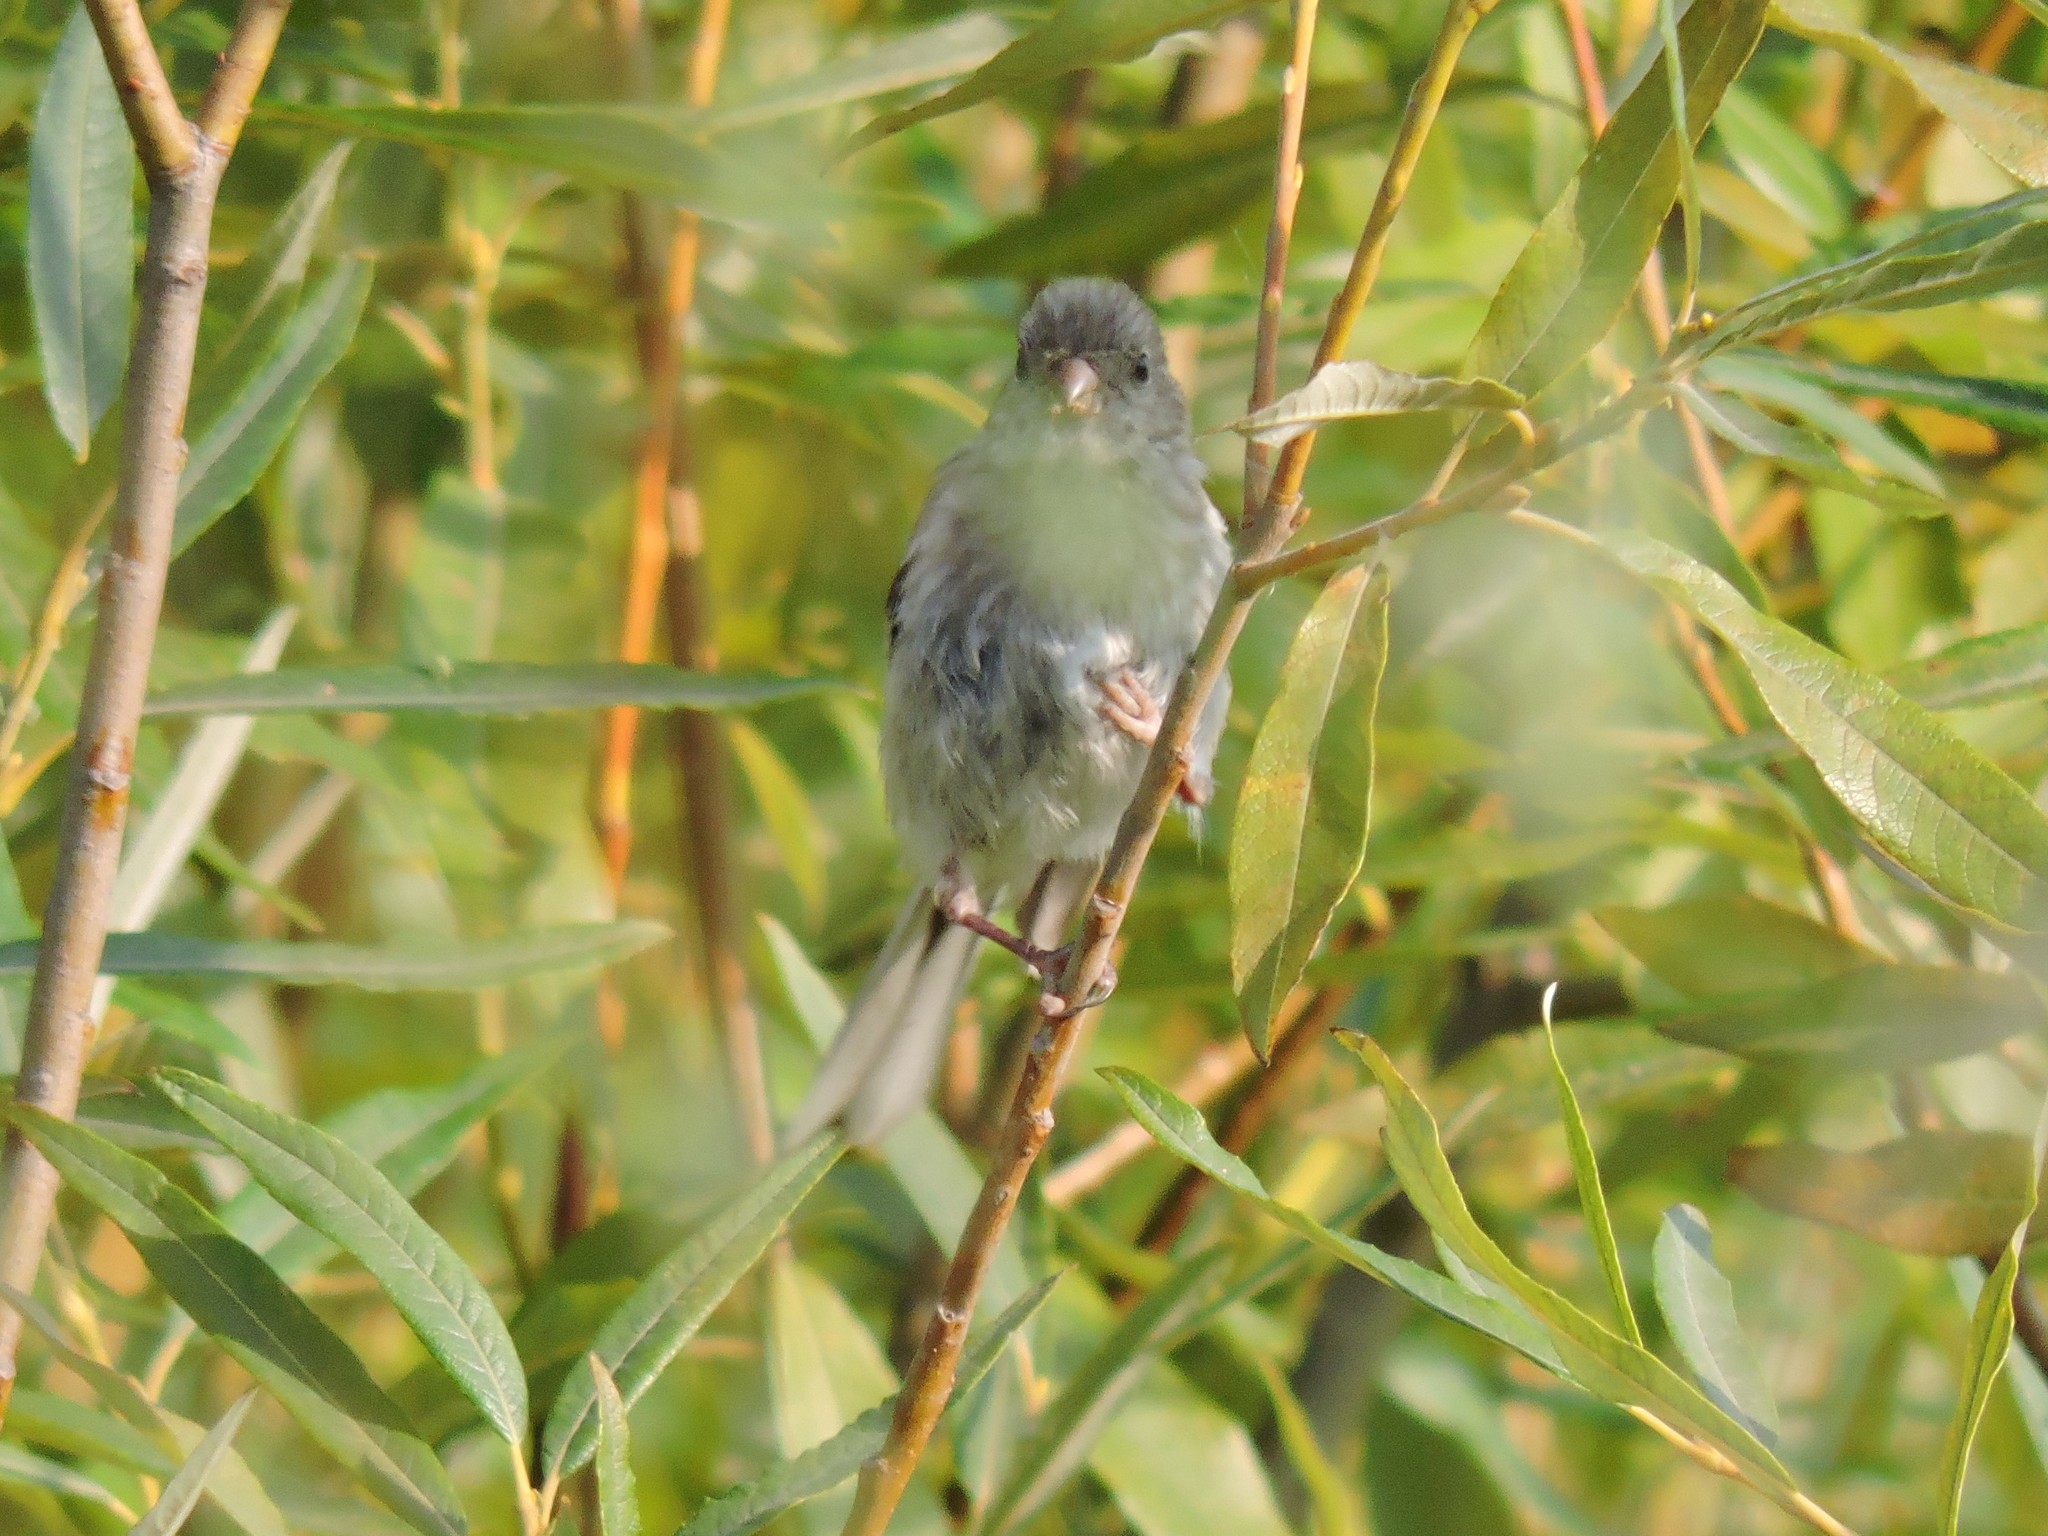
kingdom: Animalia
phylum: Chordata
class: Aves
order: Passeriformes
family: Fringillidae
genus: Carpodacus
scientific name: Carpodacus sibiricus
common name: Long-tailed rosefinch
